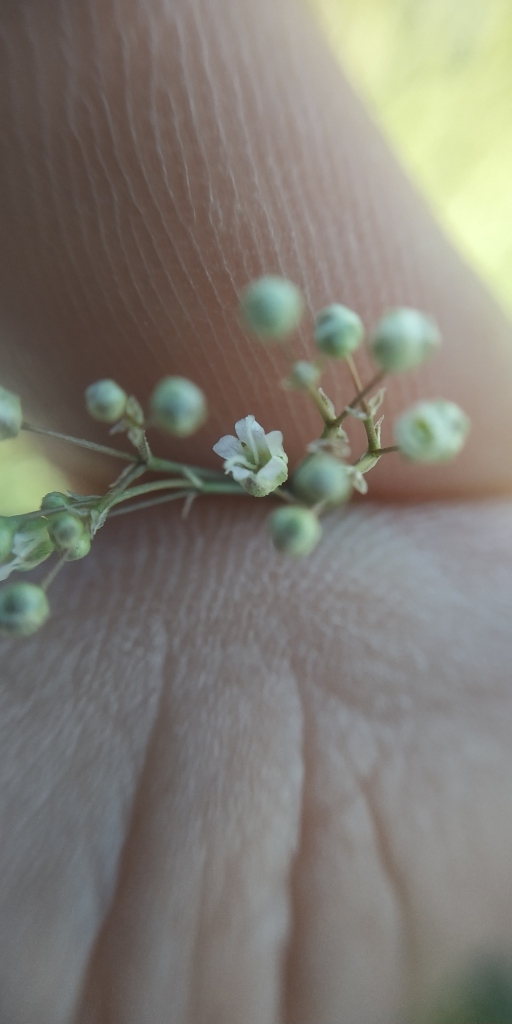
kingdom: Plantae
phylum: Tracheophyta
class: Magnoliopsida
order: Caryophyllales
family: Caryophyllaceae
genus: Gypsophila
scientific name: Gypsophila paniculata
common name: Baby's-breath
